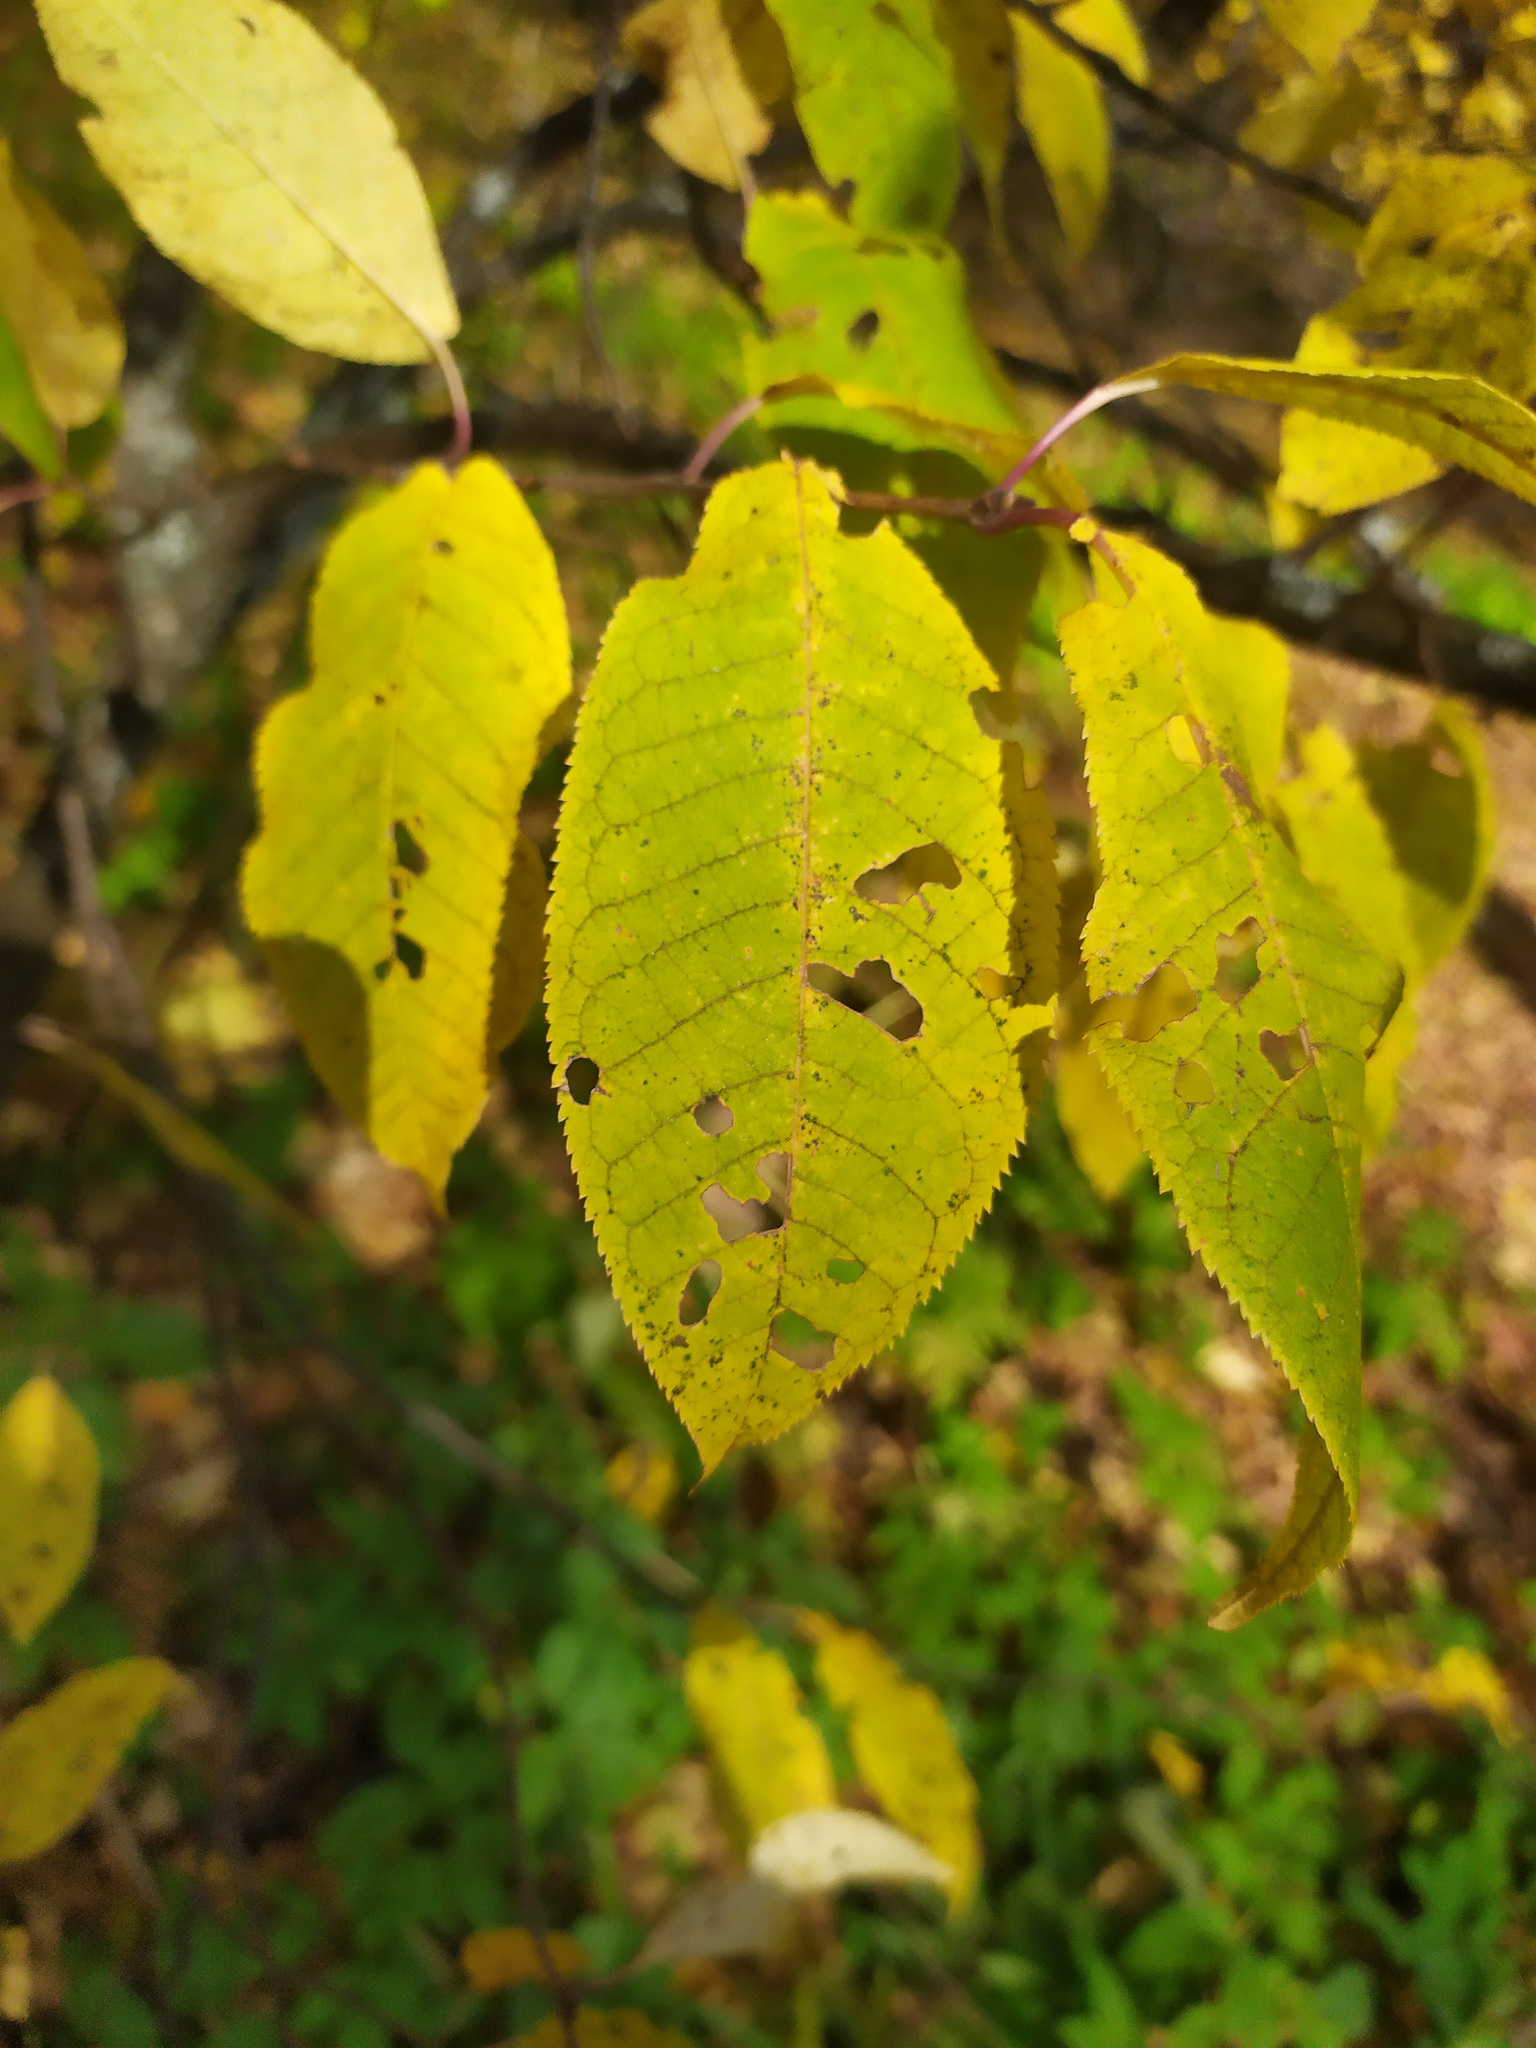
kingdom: Plantae
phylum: Tracheophyta
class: Magnoliopsida
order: Rosales
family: Rosaceae
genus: Prunus
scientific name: Prunus padus
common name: Bird cherry
